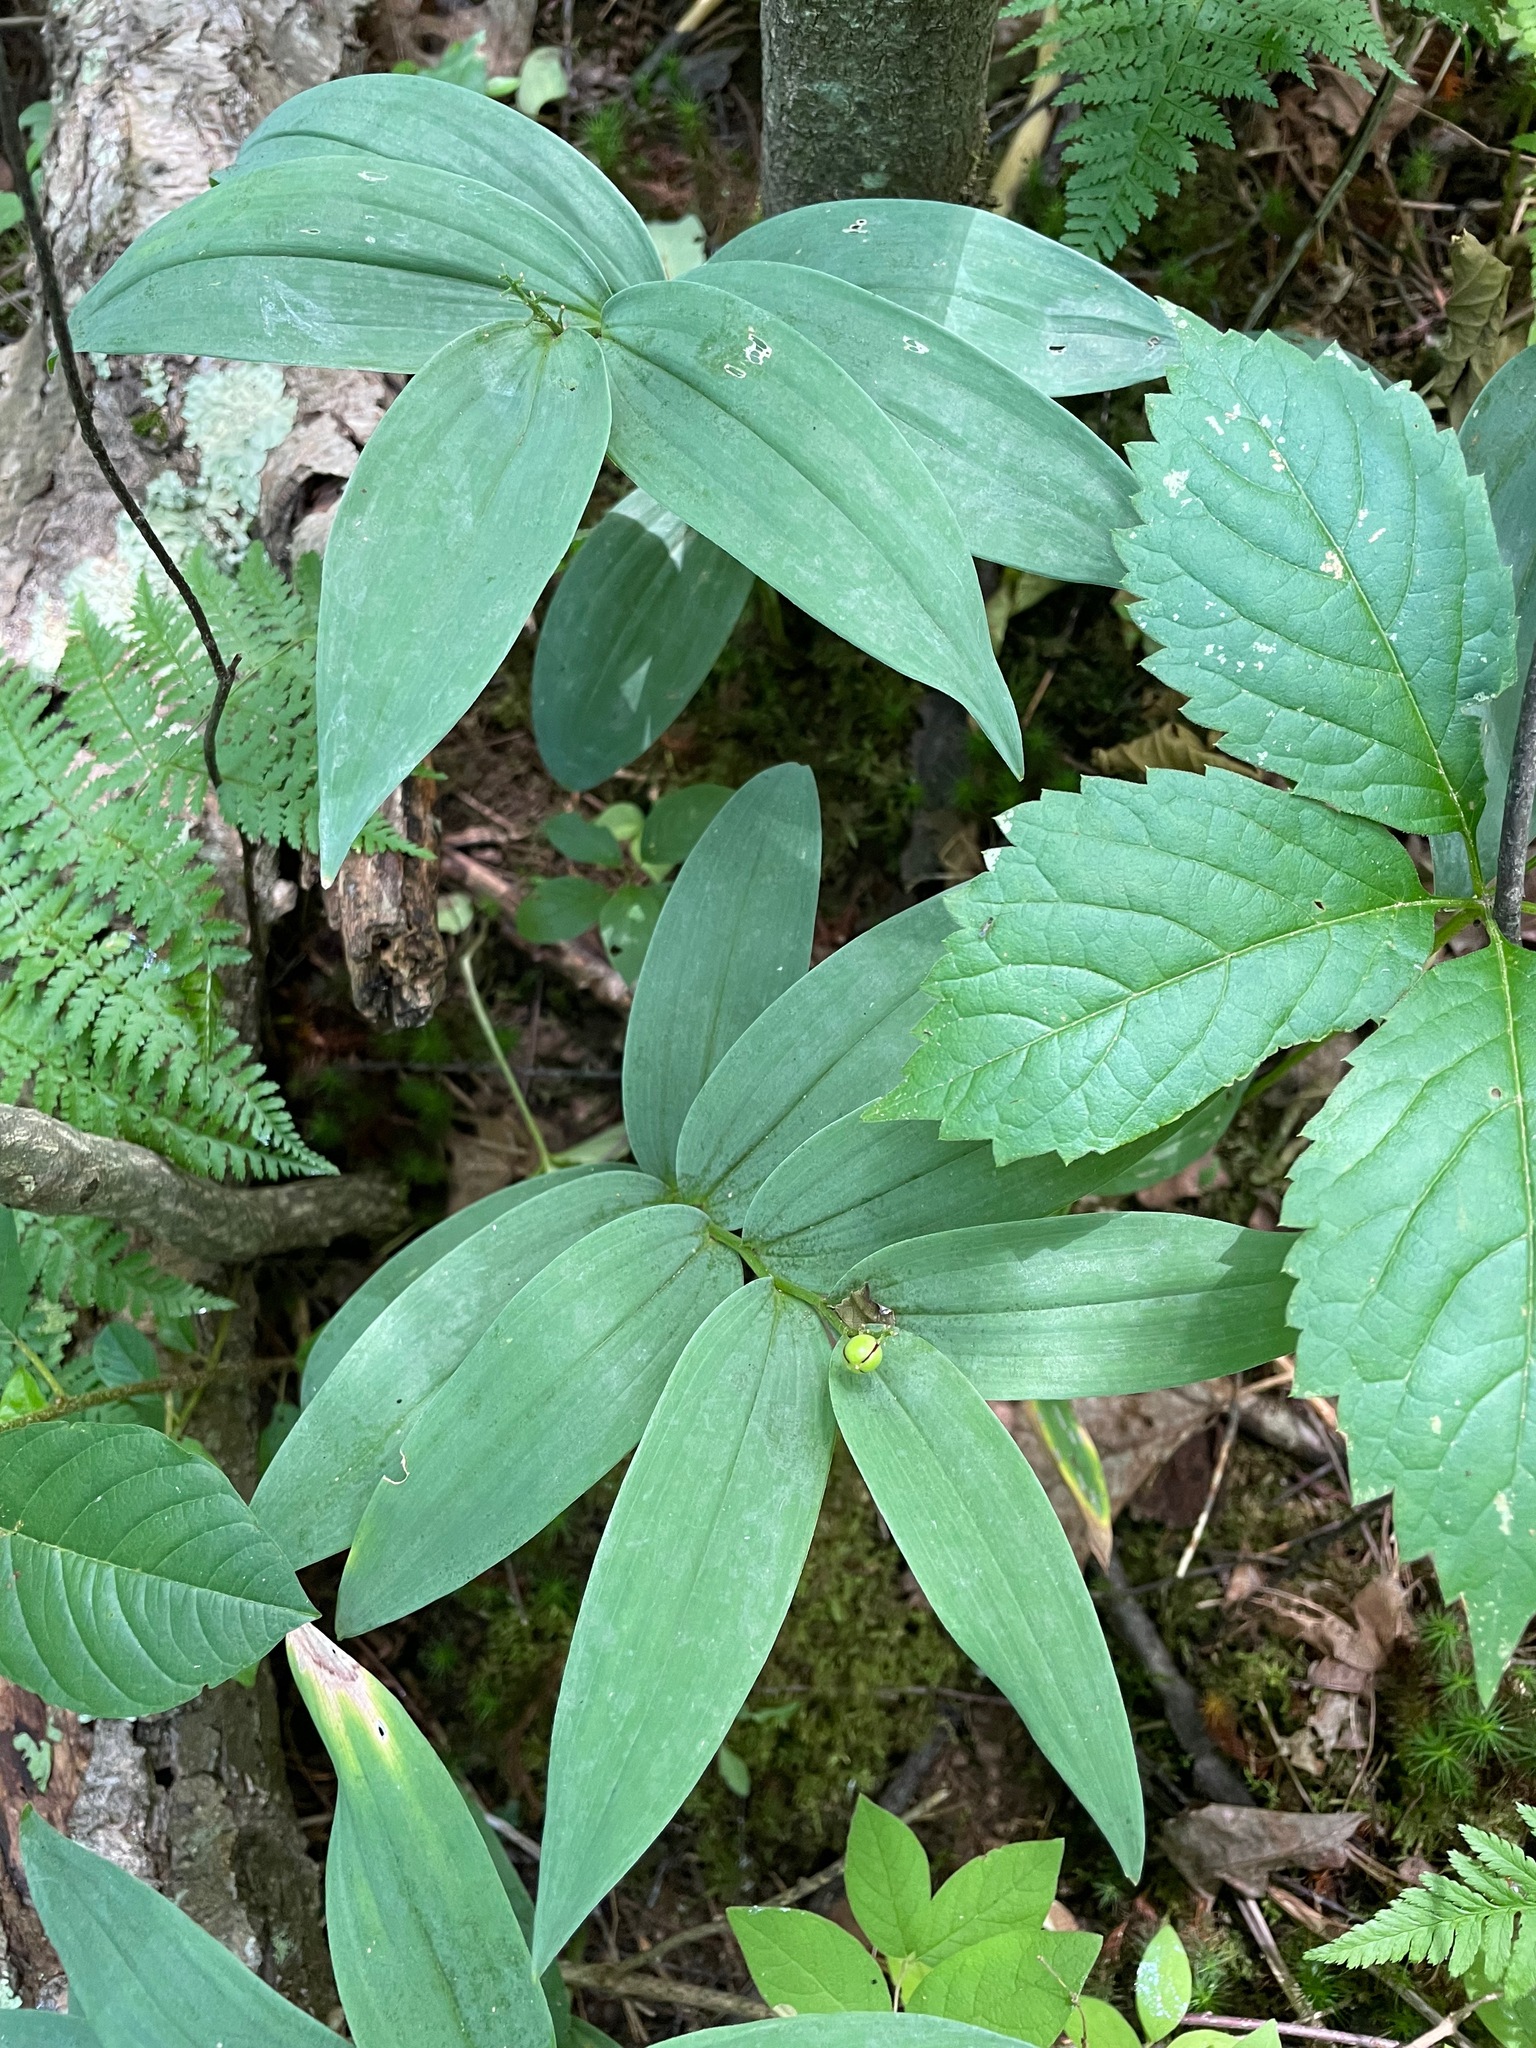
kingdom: Plantae
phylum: Tracheophyta
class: Liliopsida
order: Asparagales
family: Asparagaceae
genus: Maianthemum
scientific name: Maianthemum stellatum
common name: Little false solomon's seal
